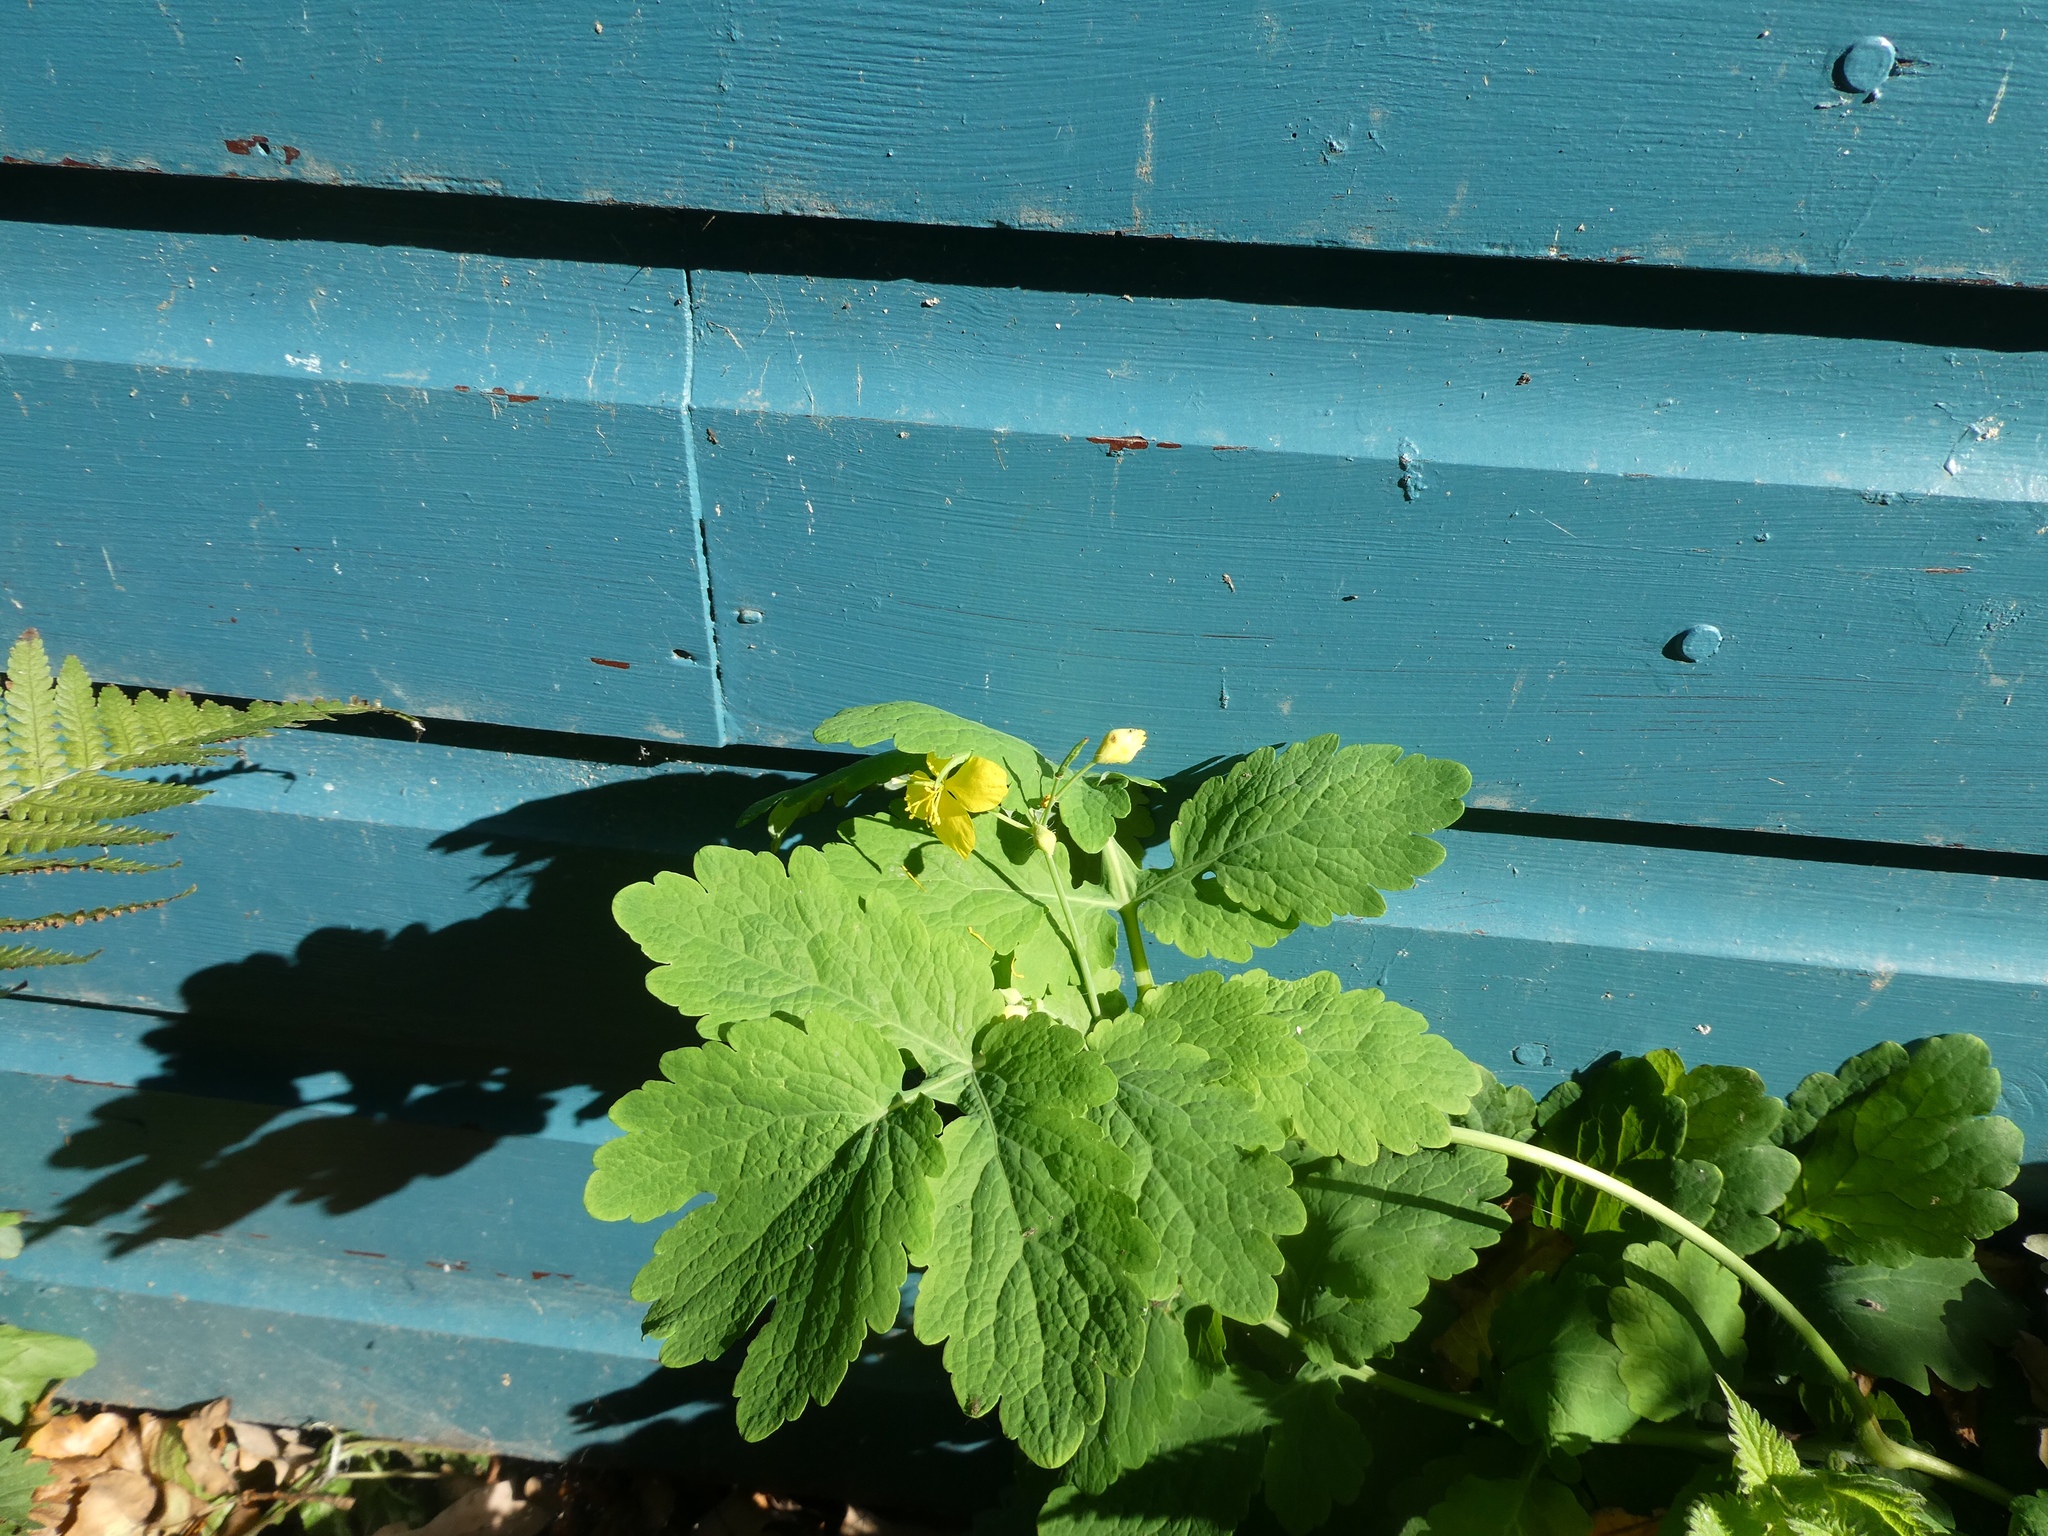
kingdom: Plantae
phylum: Tracheophyta
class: Magnoliopsida
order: Ranunculales
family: Papaveraceae
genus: Chelidonium
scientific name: Chelidonium majus
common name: Greater celandine
